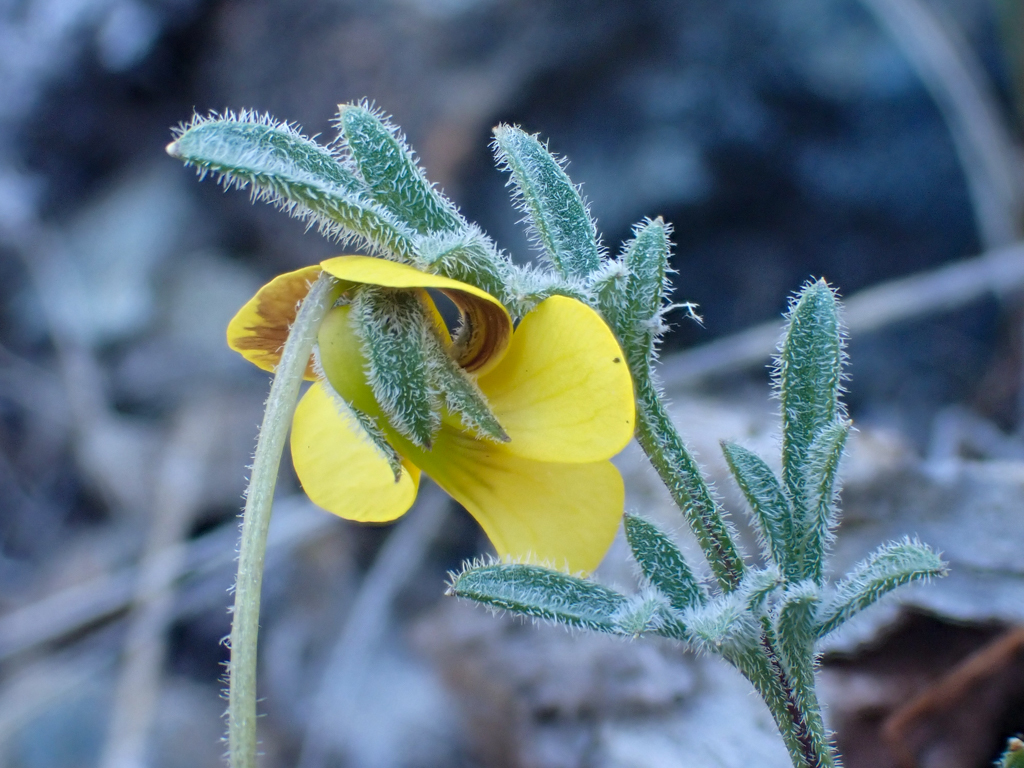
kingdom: Plantae
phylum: Tracheophyta
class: Magnoliopsida
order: Malpighiales
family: Violaceae
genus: Viola
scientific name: Viola douglasii
